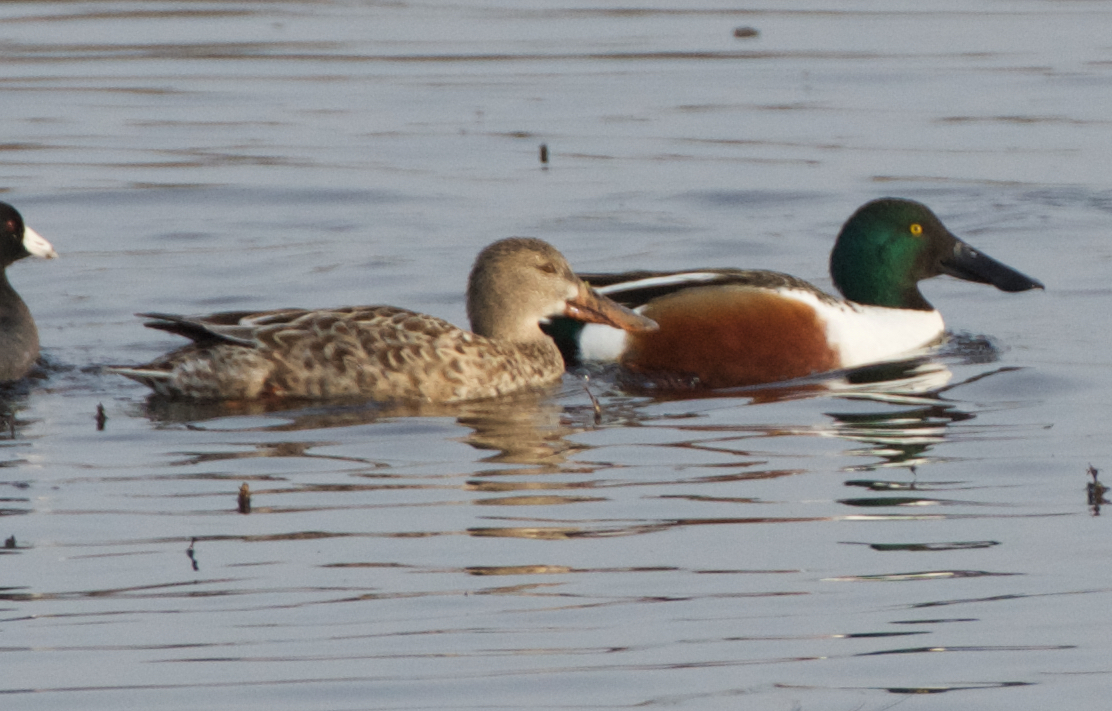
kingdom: Animalia
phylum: Chordata
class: Aves
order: Anseriformes
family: Anatidae
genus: Spatula
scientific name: Spatula clypeata
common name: Northern shoveler
